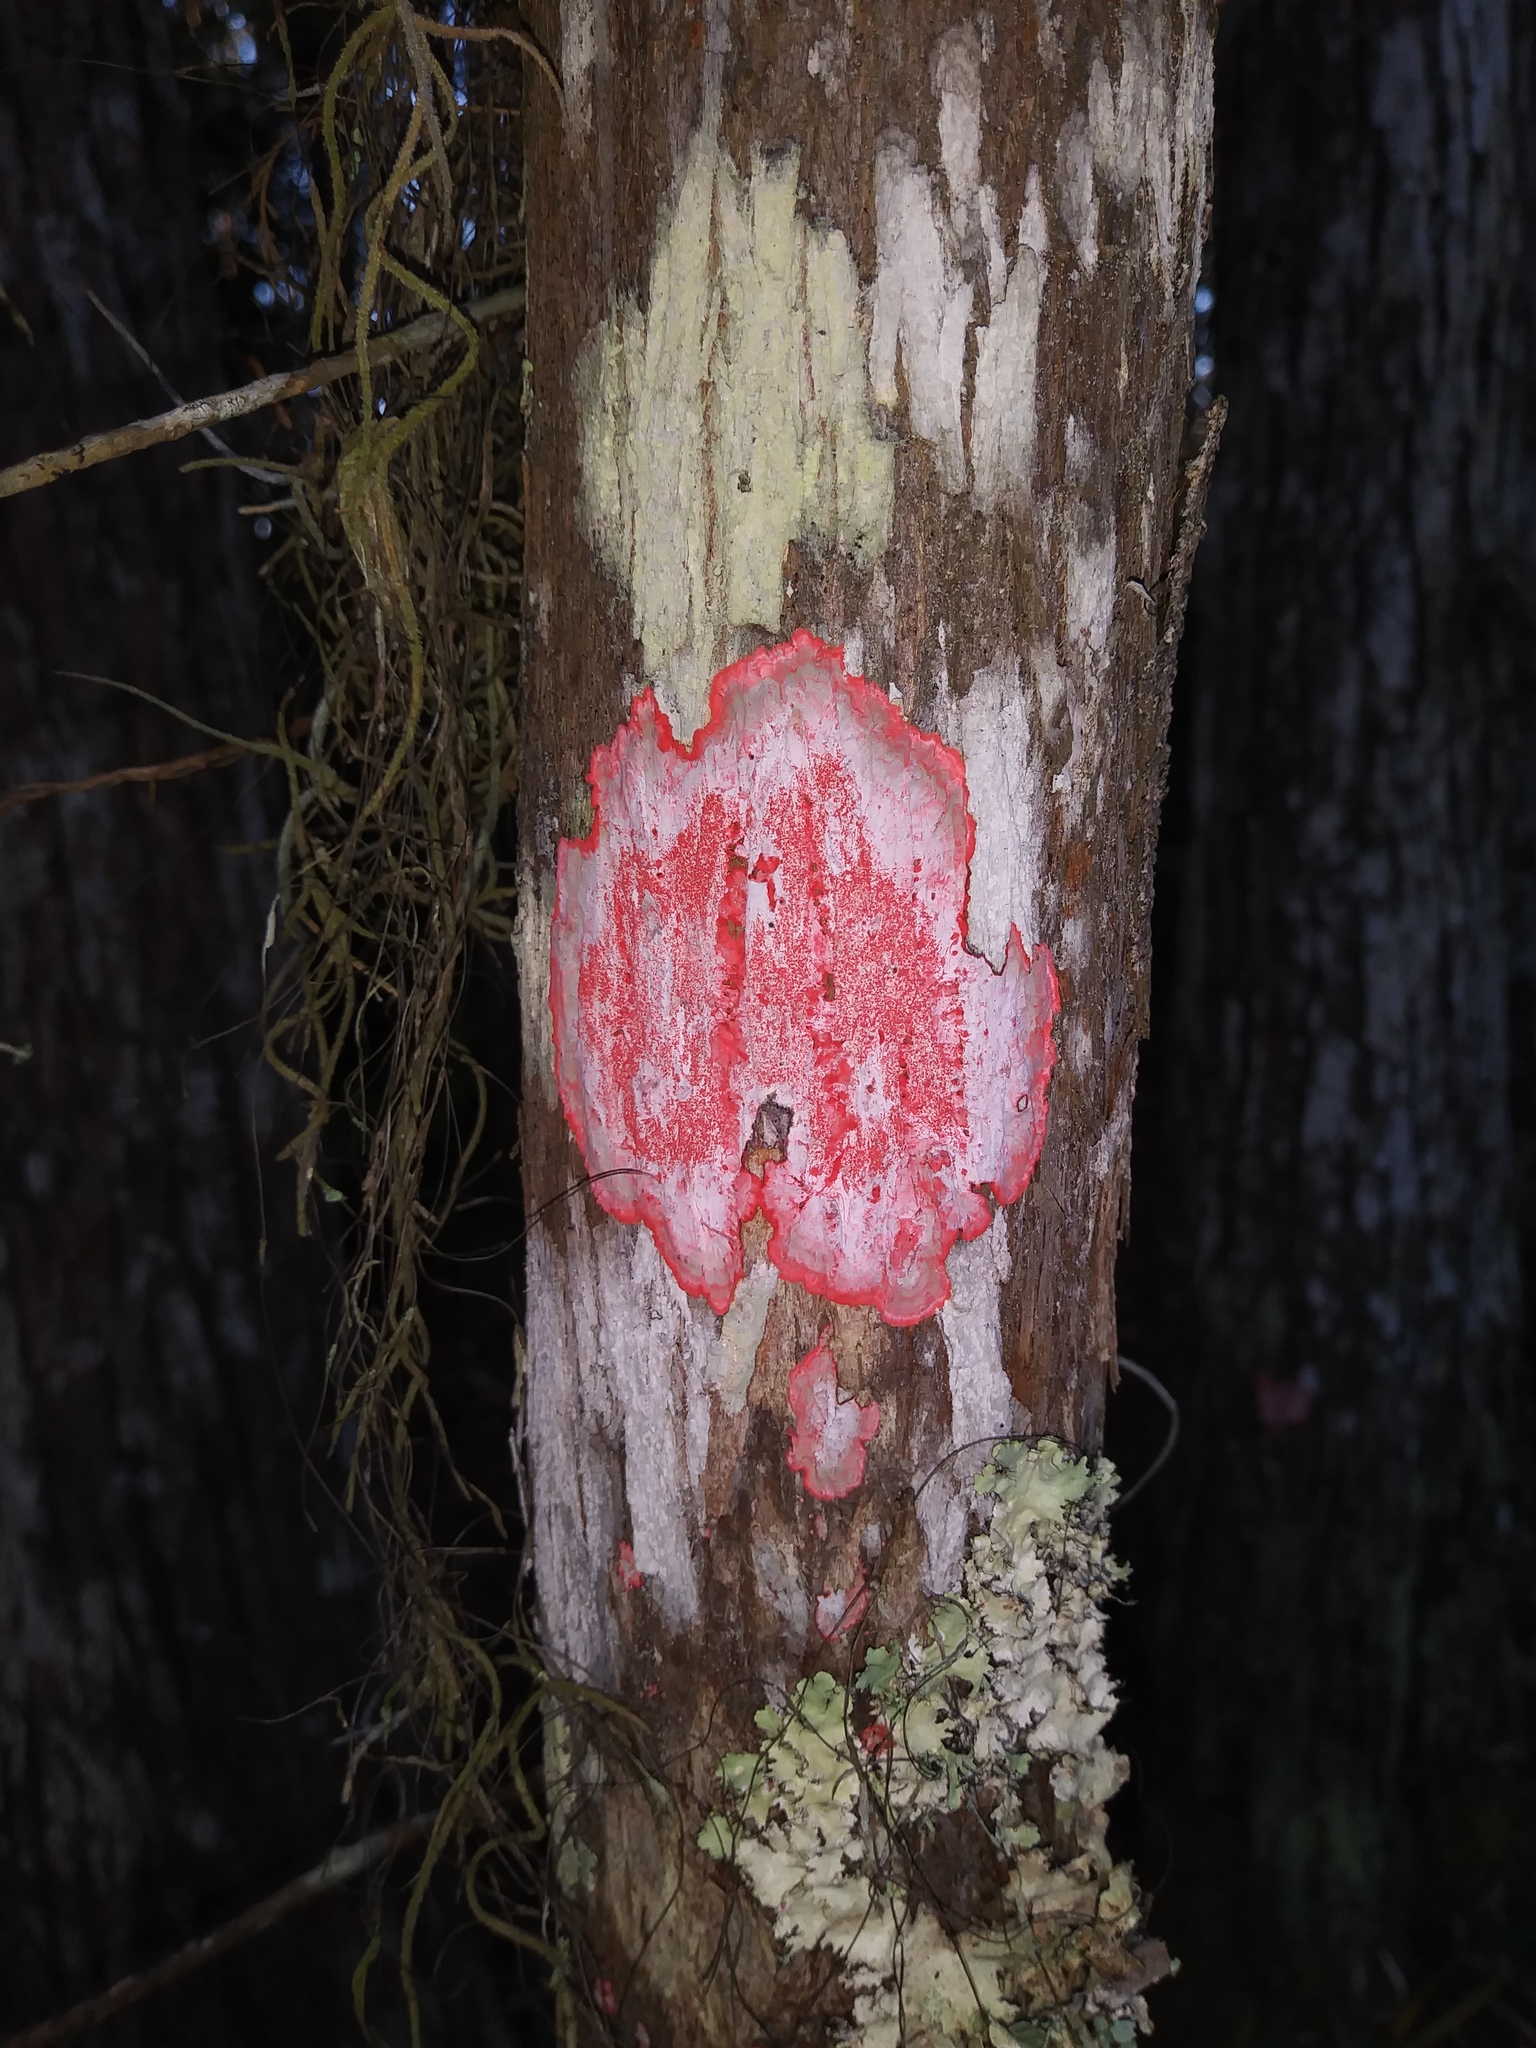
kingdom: Fungi
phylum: Ascomycota
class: Arthoniomycetes
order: Arthoniales
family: Arthoniaceae
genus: Herpothallon
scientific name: Herpothallon rubrocinctum
